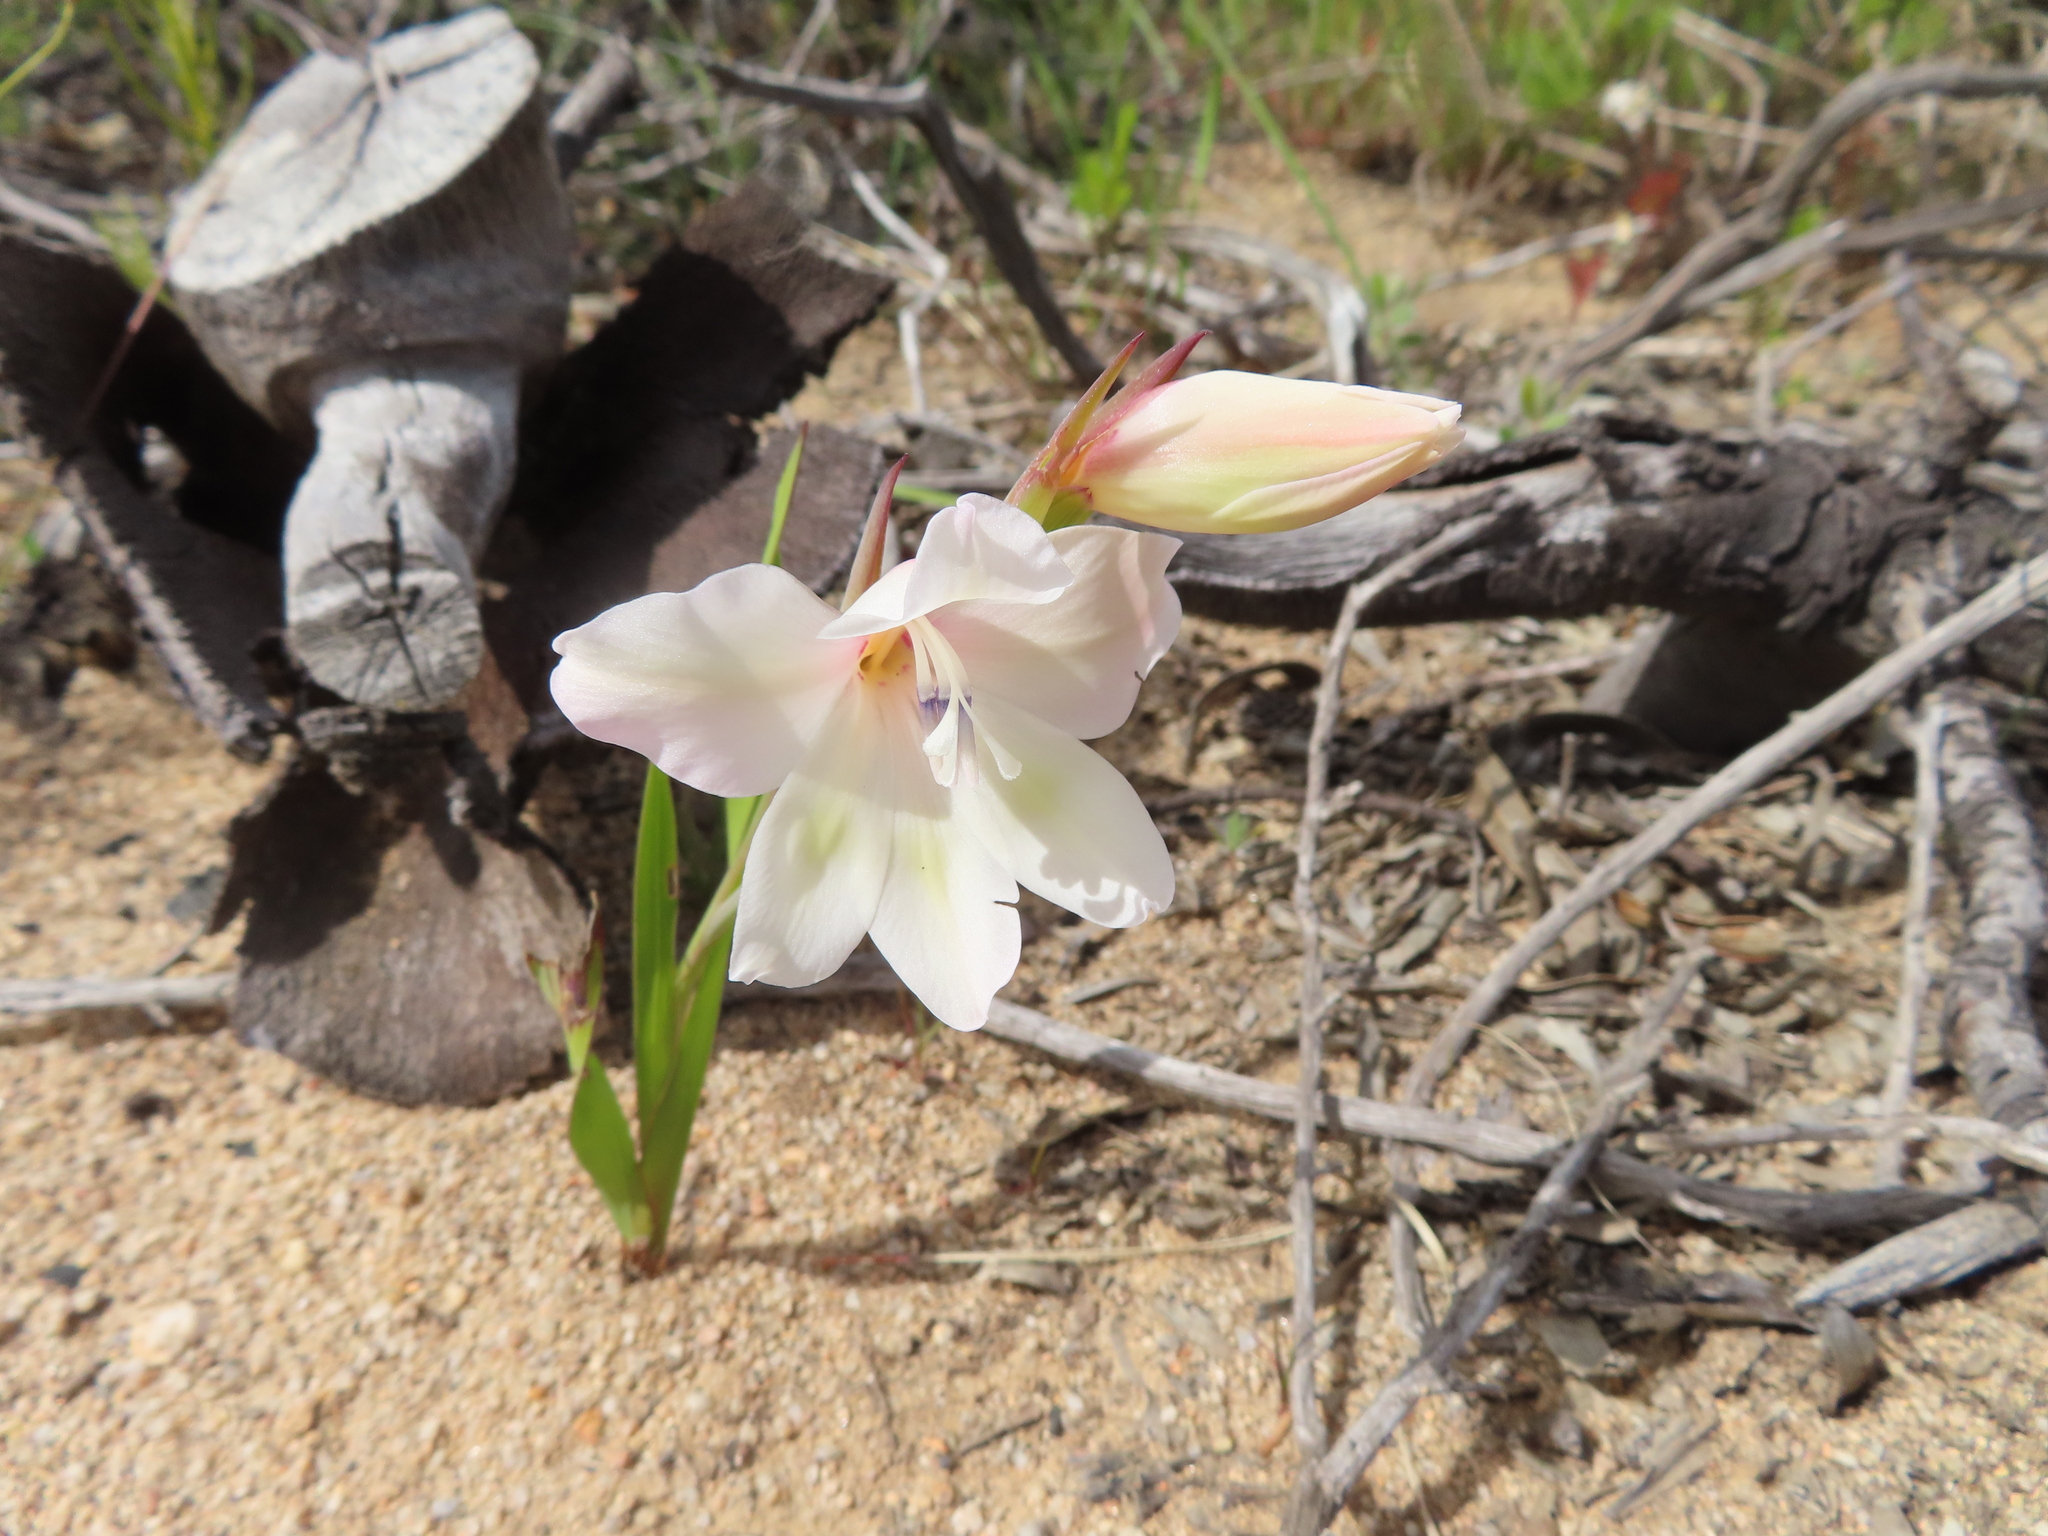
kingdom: Plantae
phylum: Tracheophyta
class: Liliopsida
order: Asparagales
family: Iridaceae
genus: Gladiolus
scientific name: Gladiolus carneus
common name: Painted-lady
